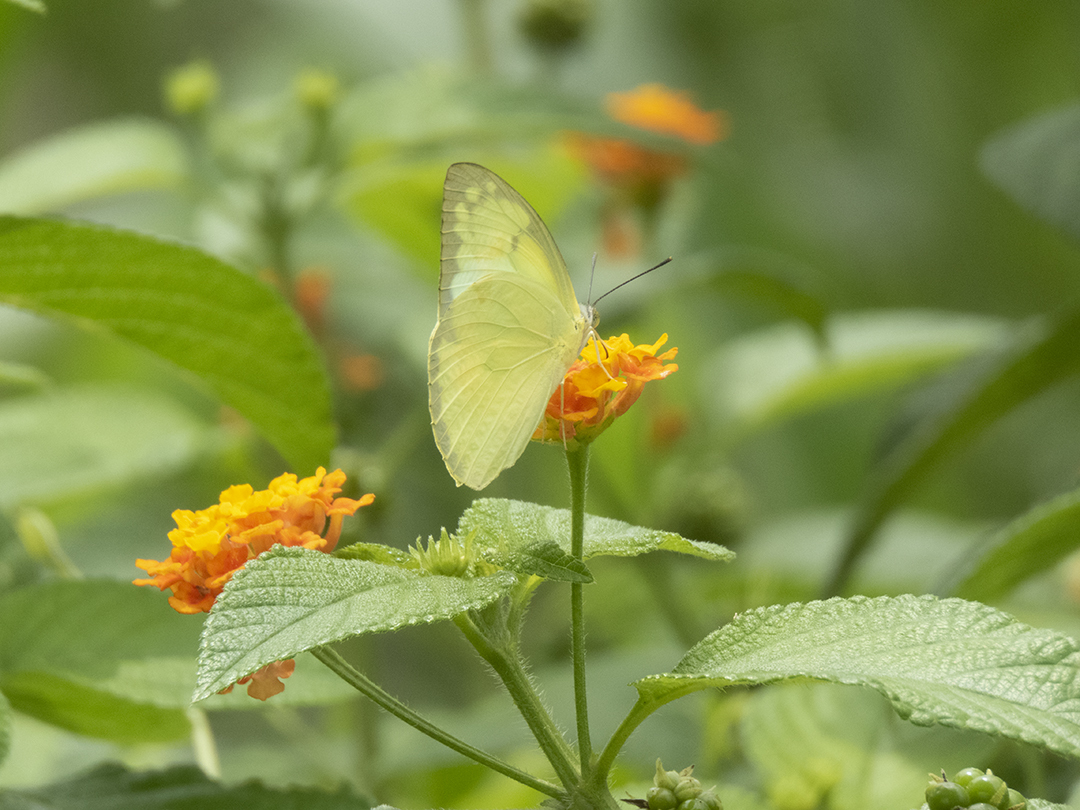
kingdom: Animalia
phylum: Arthropoda
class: Insecta
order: Lepidoptera
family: Pieridae
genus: Catopsilia
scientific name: Catopsilia pomona
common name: Common emigrant
